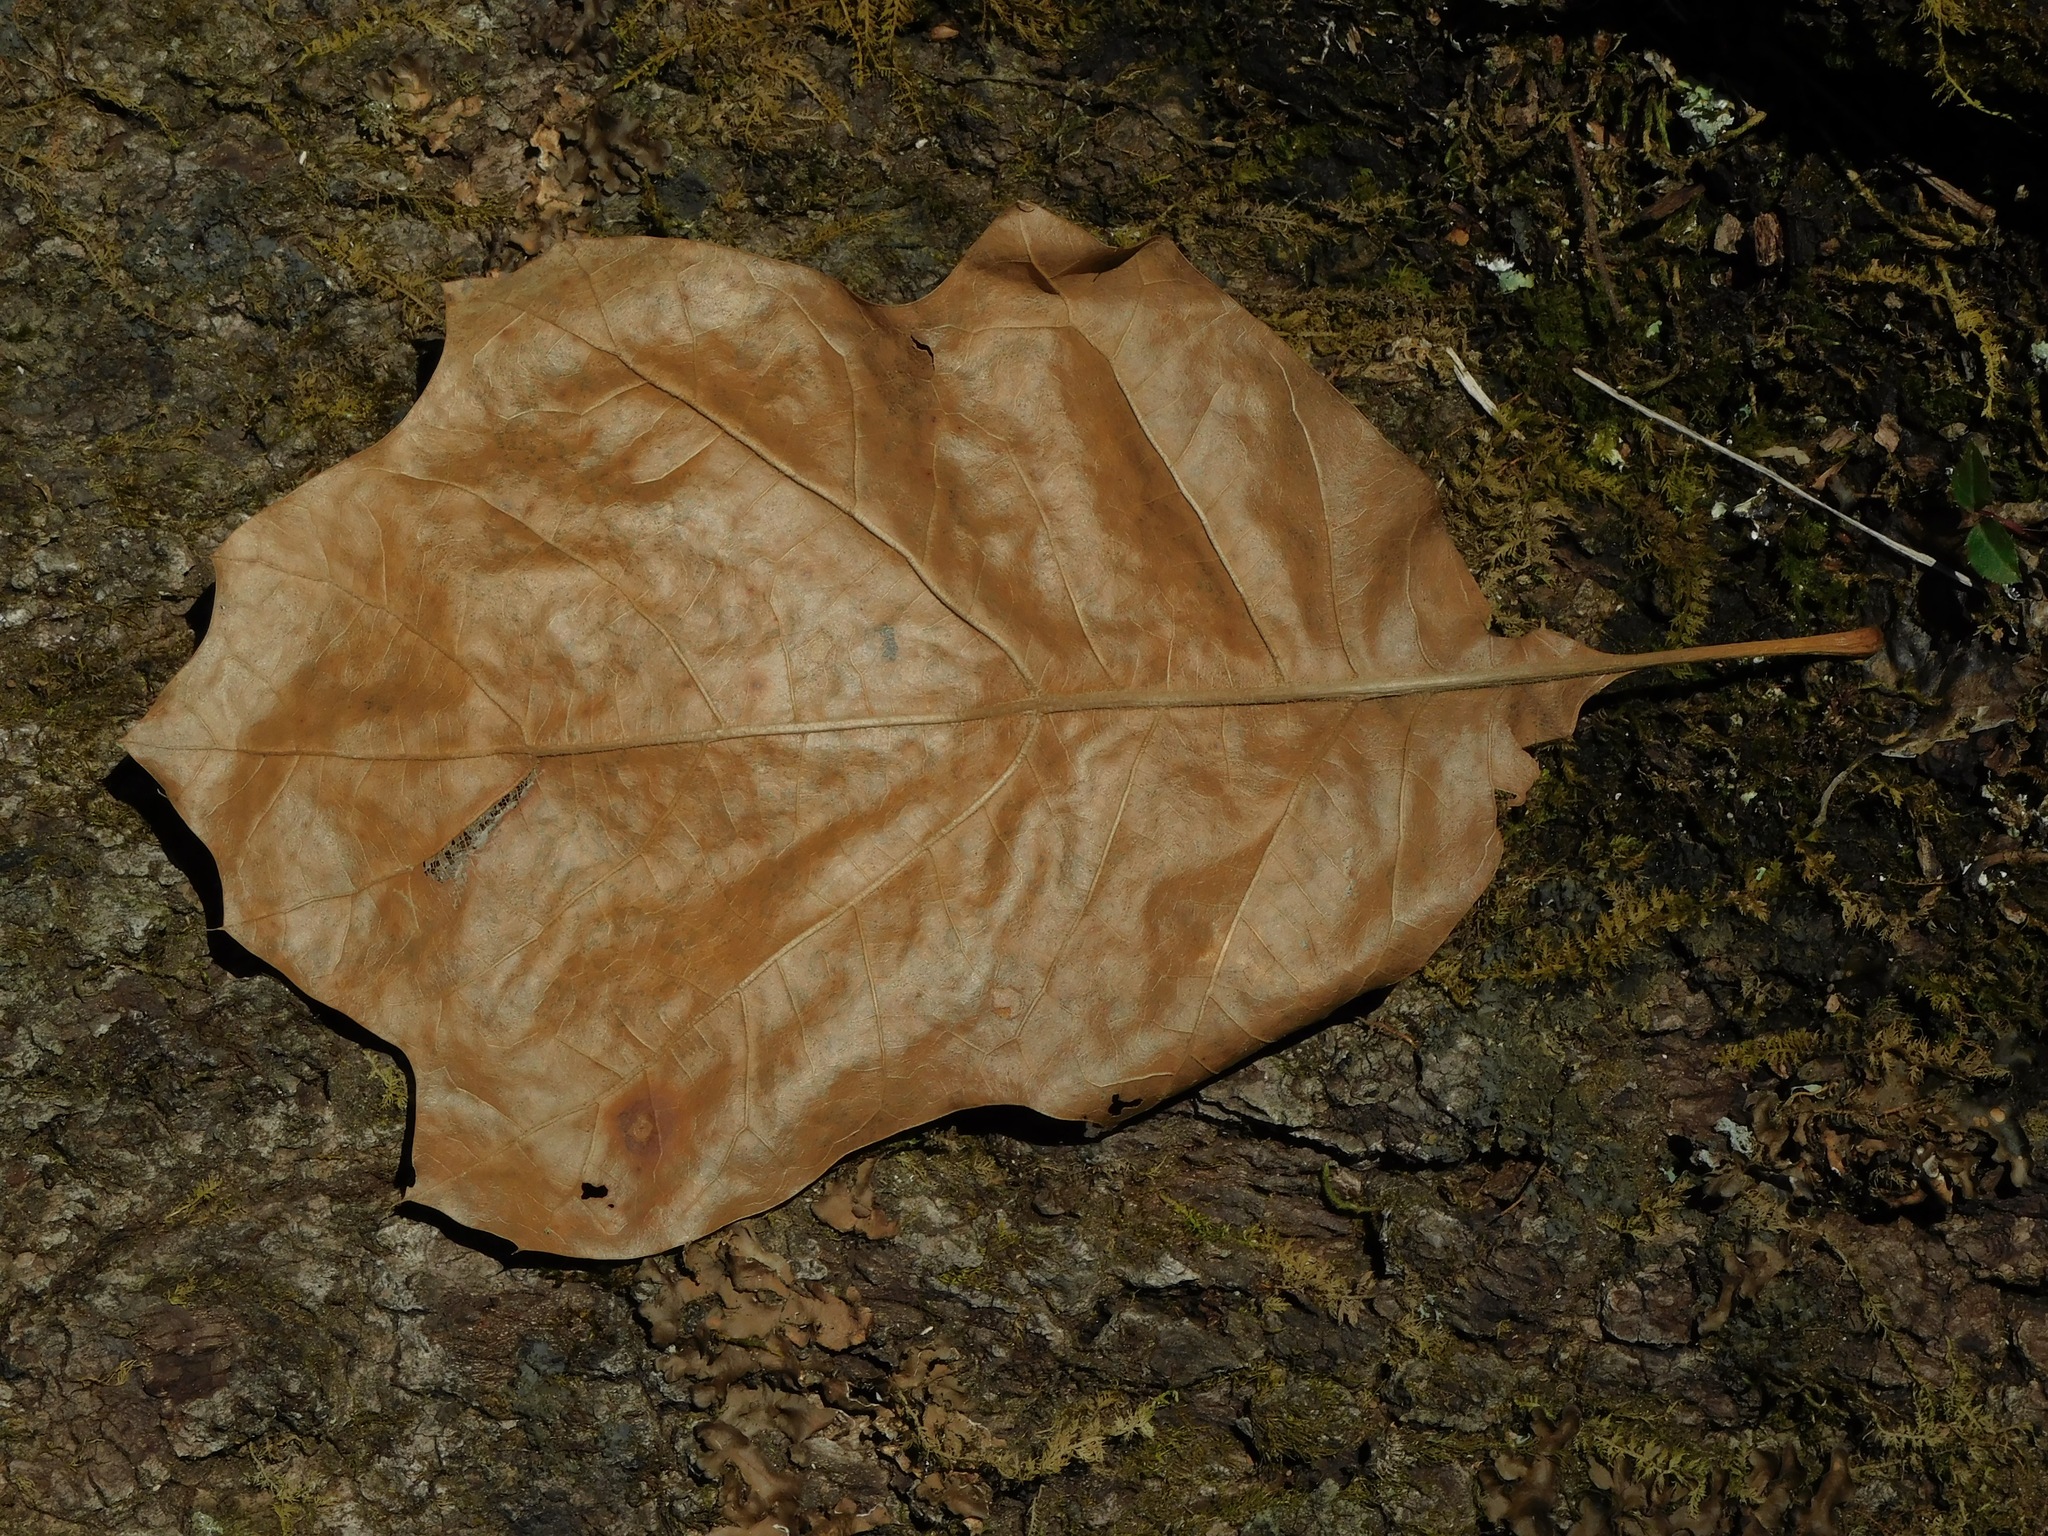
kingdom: Plantae
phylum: Tracheophyta
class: Magnoliopsida
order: Fagales
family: Fagaceae
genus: Quercus
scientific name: Quercus velutina
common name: Black oak
